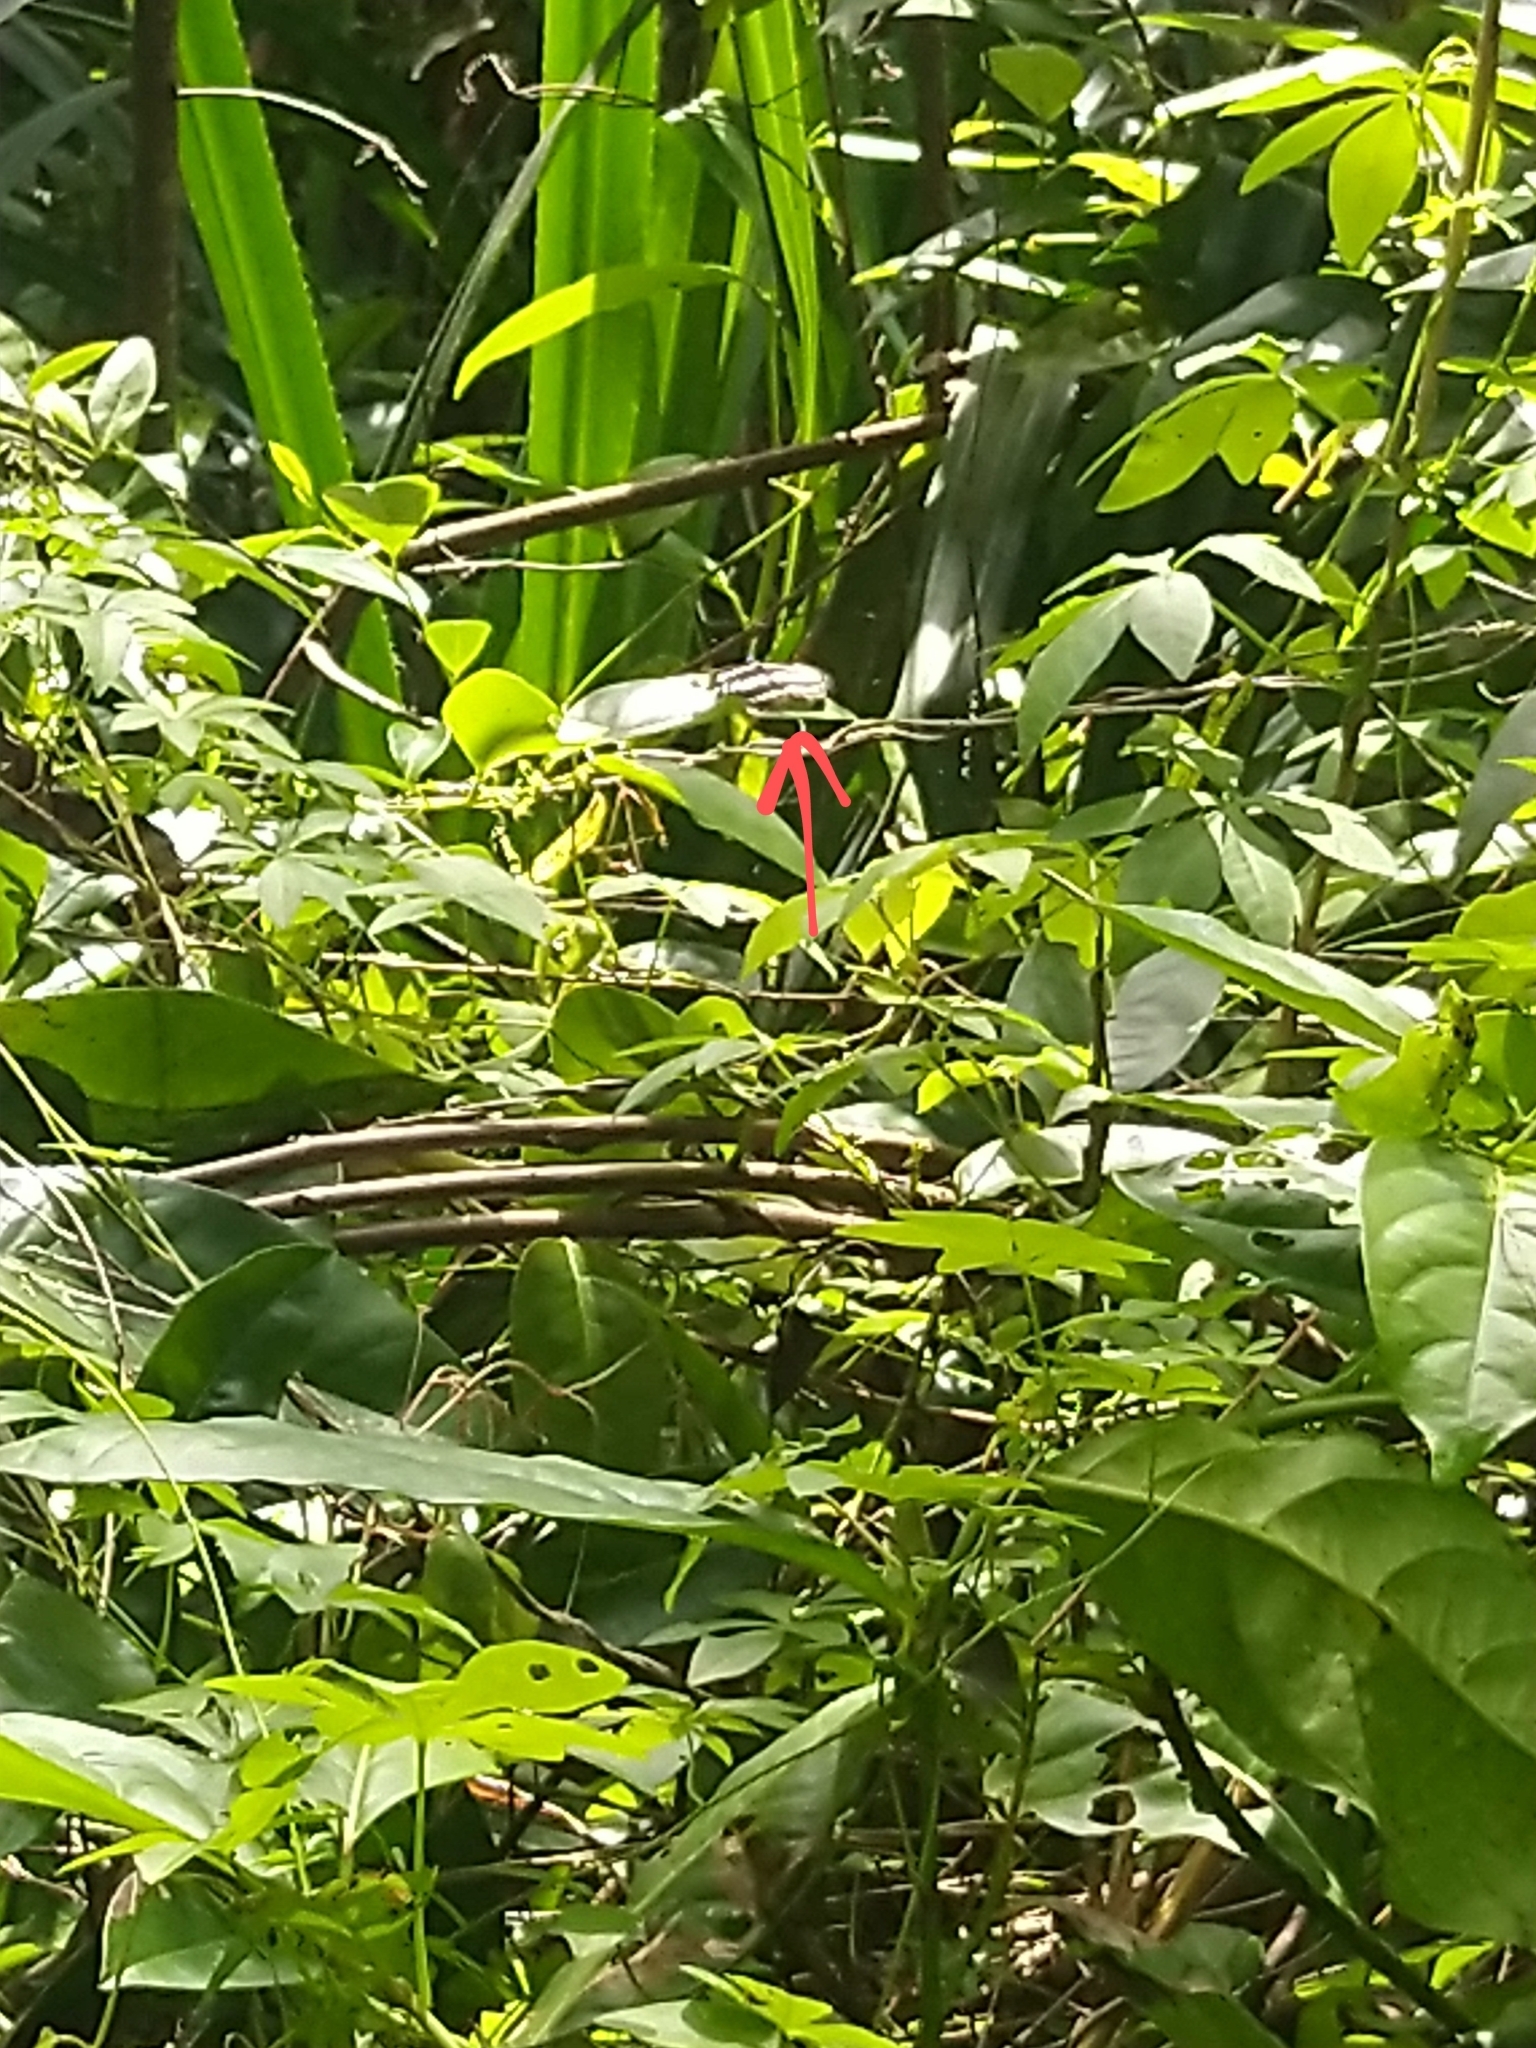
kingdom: Animalia
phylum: Arthropoda
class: Insecta
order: Lepidoptera
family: Nymphalidae
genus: Neptis
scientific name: Neptis hylas
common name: Common sailer
